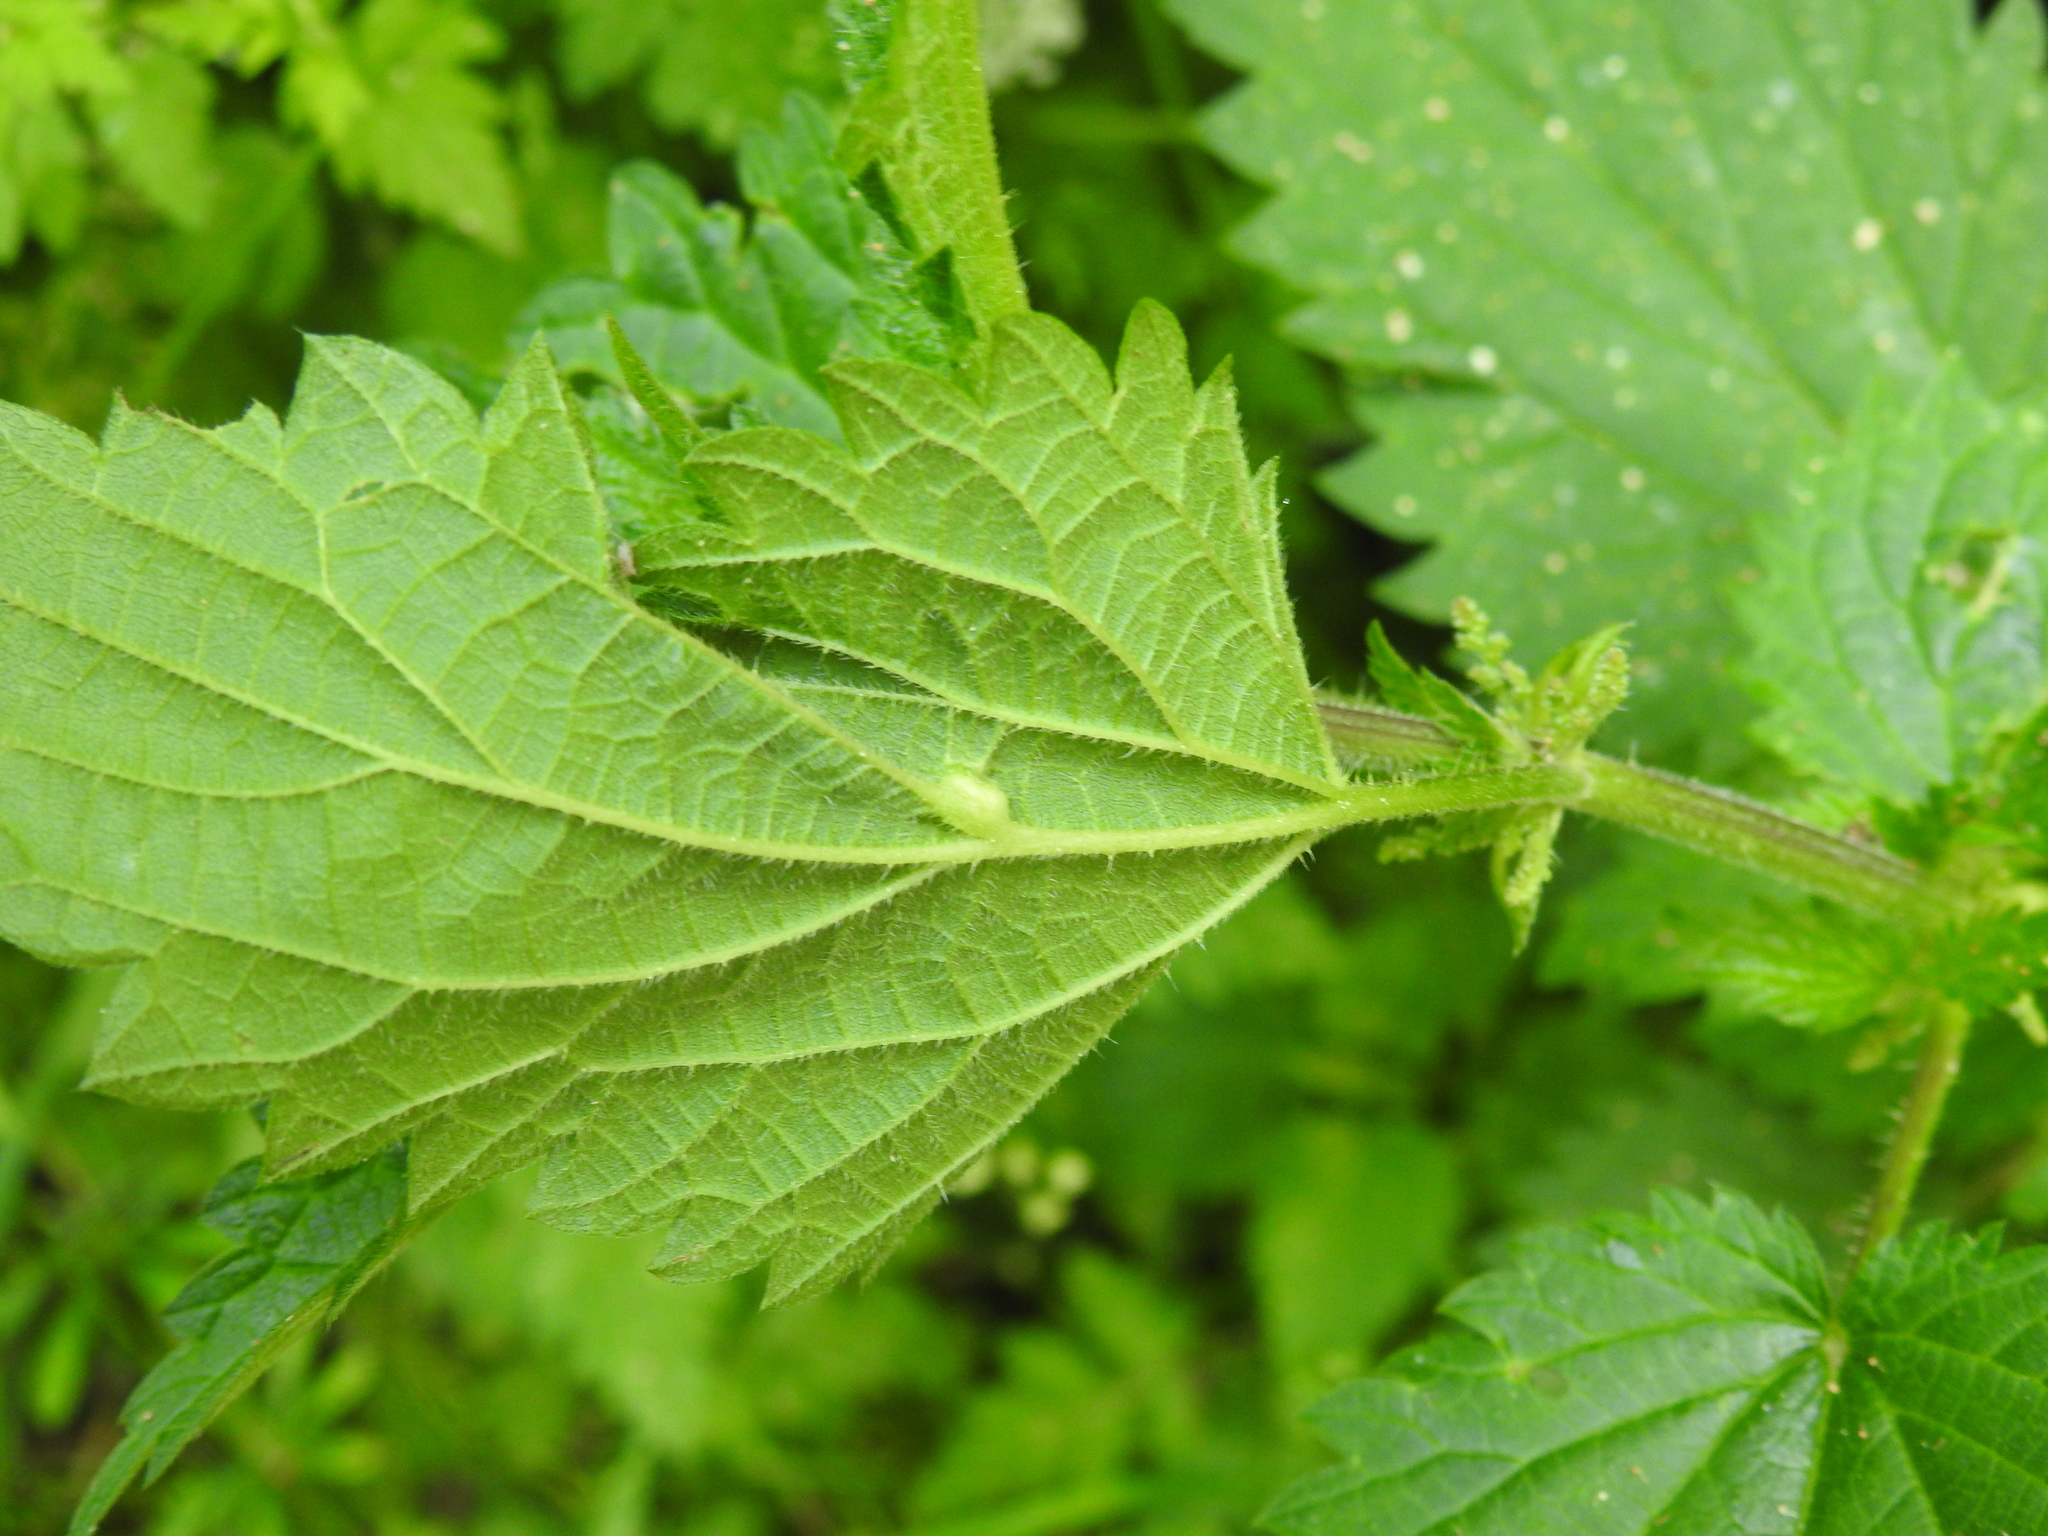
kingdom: Animalia
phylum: Arthropoda
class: Insecta
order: Diptera
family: Cecidomyiidae
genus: Dasineura
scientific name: Dasineura urticae
